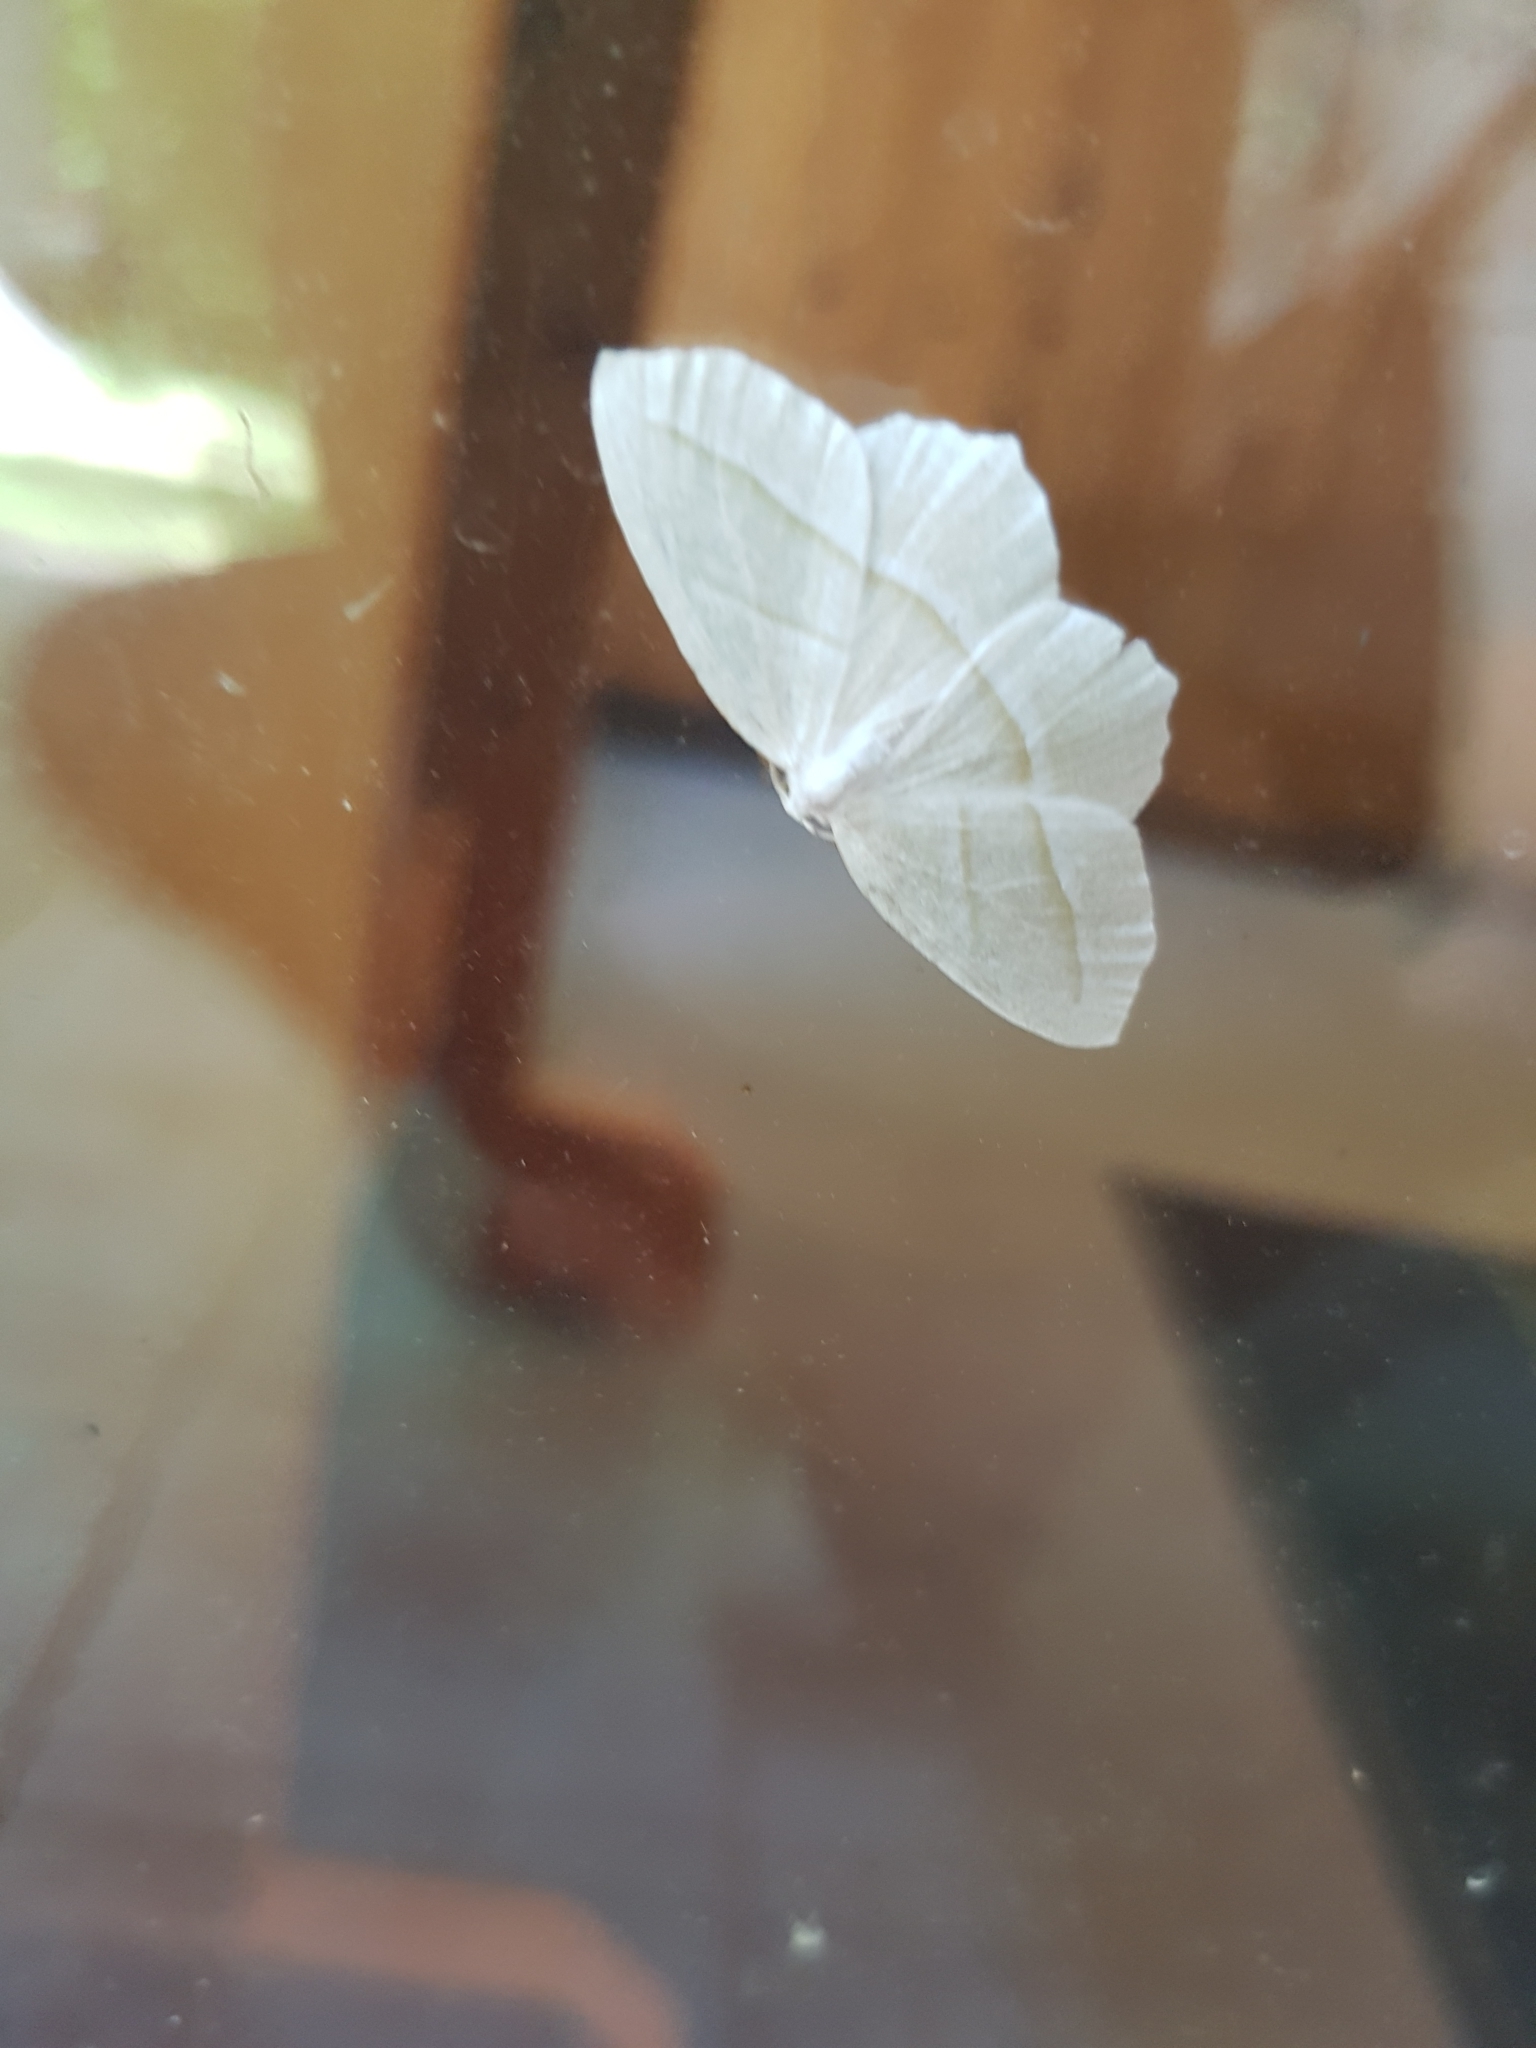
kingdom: Animalia
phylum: Arthropoda
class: Insecta
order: Lepidoptera
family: Geometridae
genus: Campaea
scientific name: Campaea perlata
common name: Fringed looper
